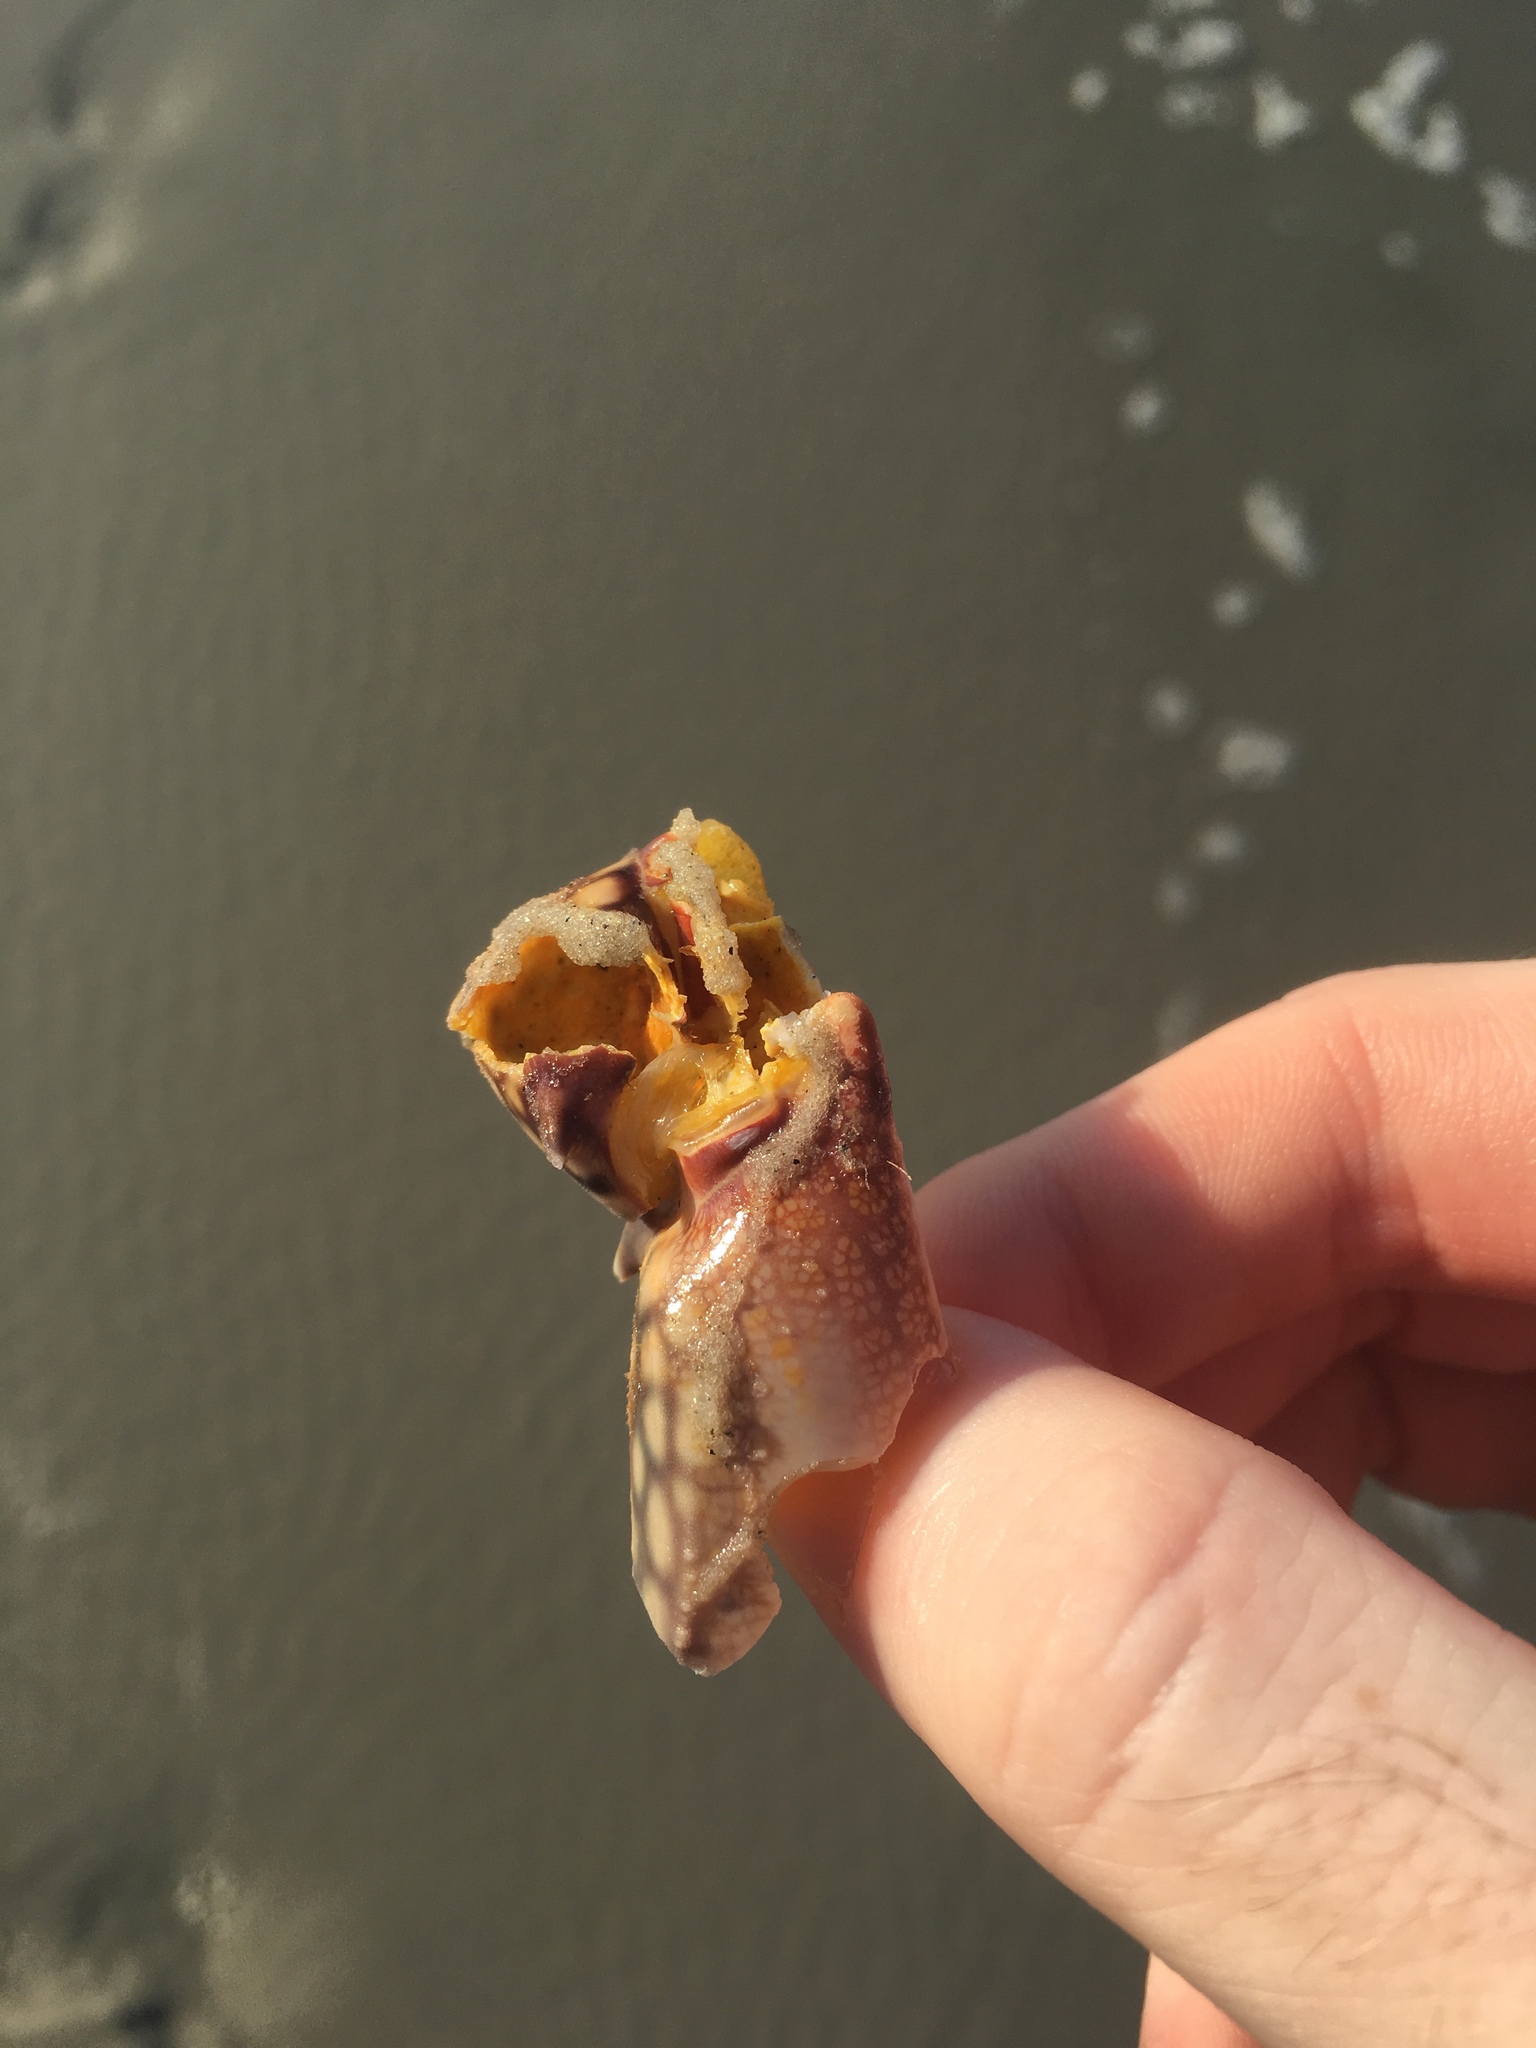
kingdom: Animalia
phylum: Arthropoda
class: Malacostraca
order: Decapoda
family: Portunidae
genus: Arenaeus
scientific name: Arenaeus cribrarius
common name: Speckled crab
